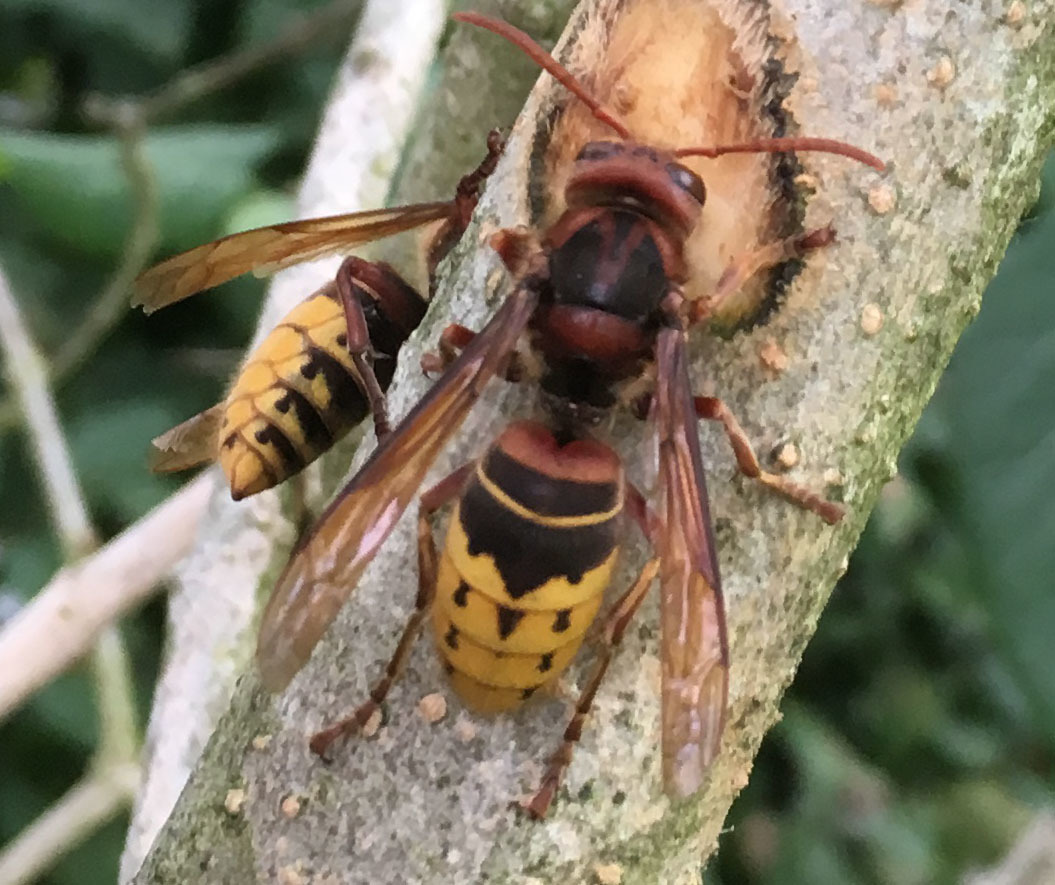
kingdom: Animalia
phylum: Arthropoda
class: Insecta
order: Hymenoptera
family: Vespidae
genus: Vespa
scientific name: Vespa crabro
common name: Hornet
